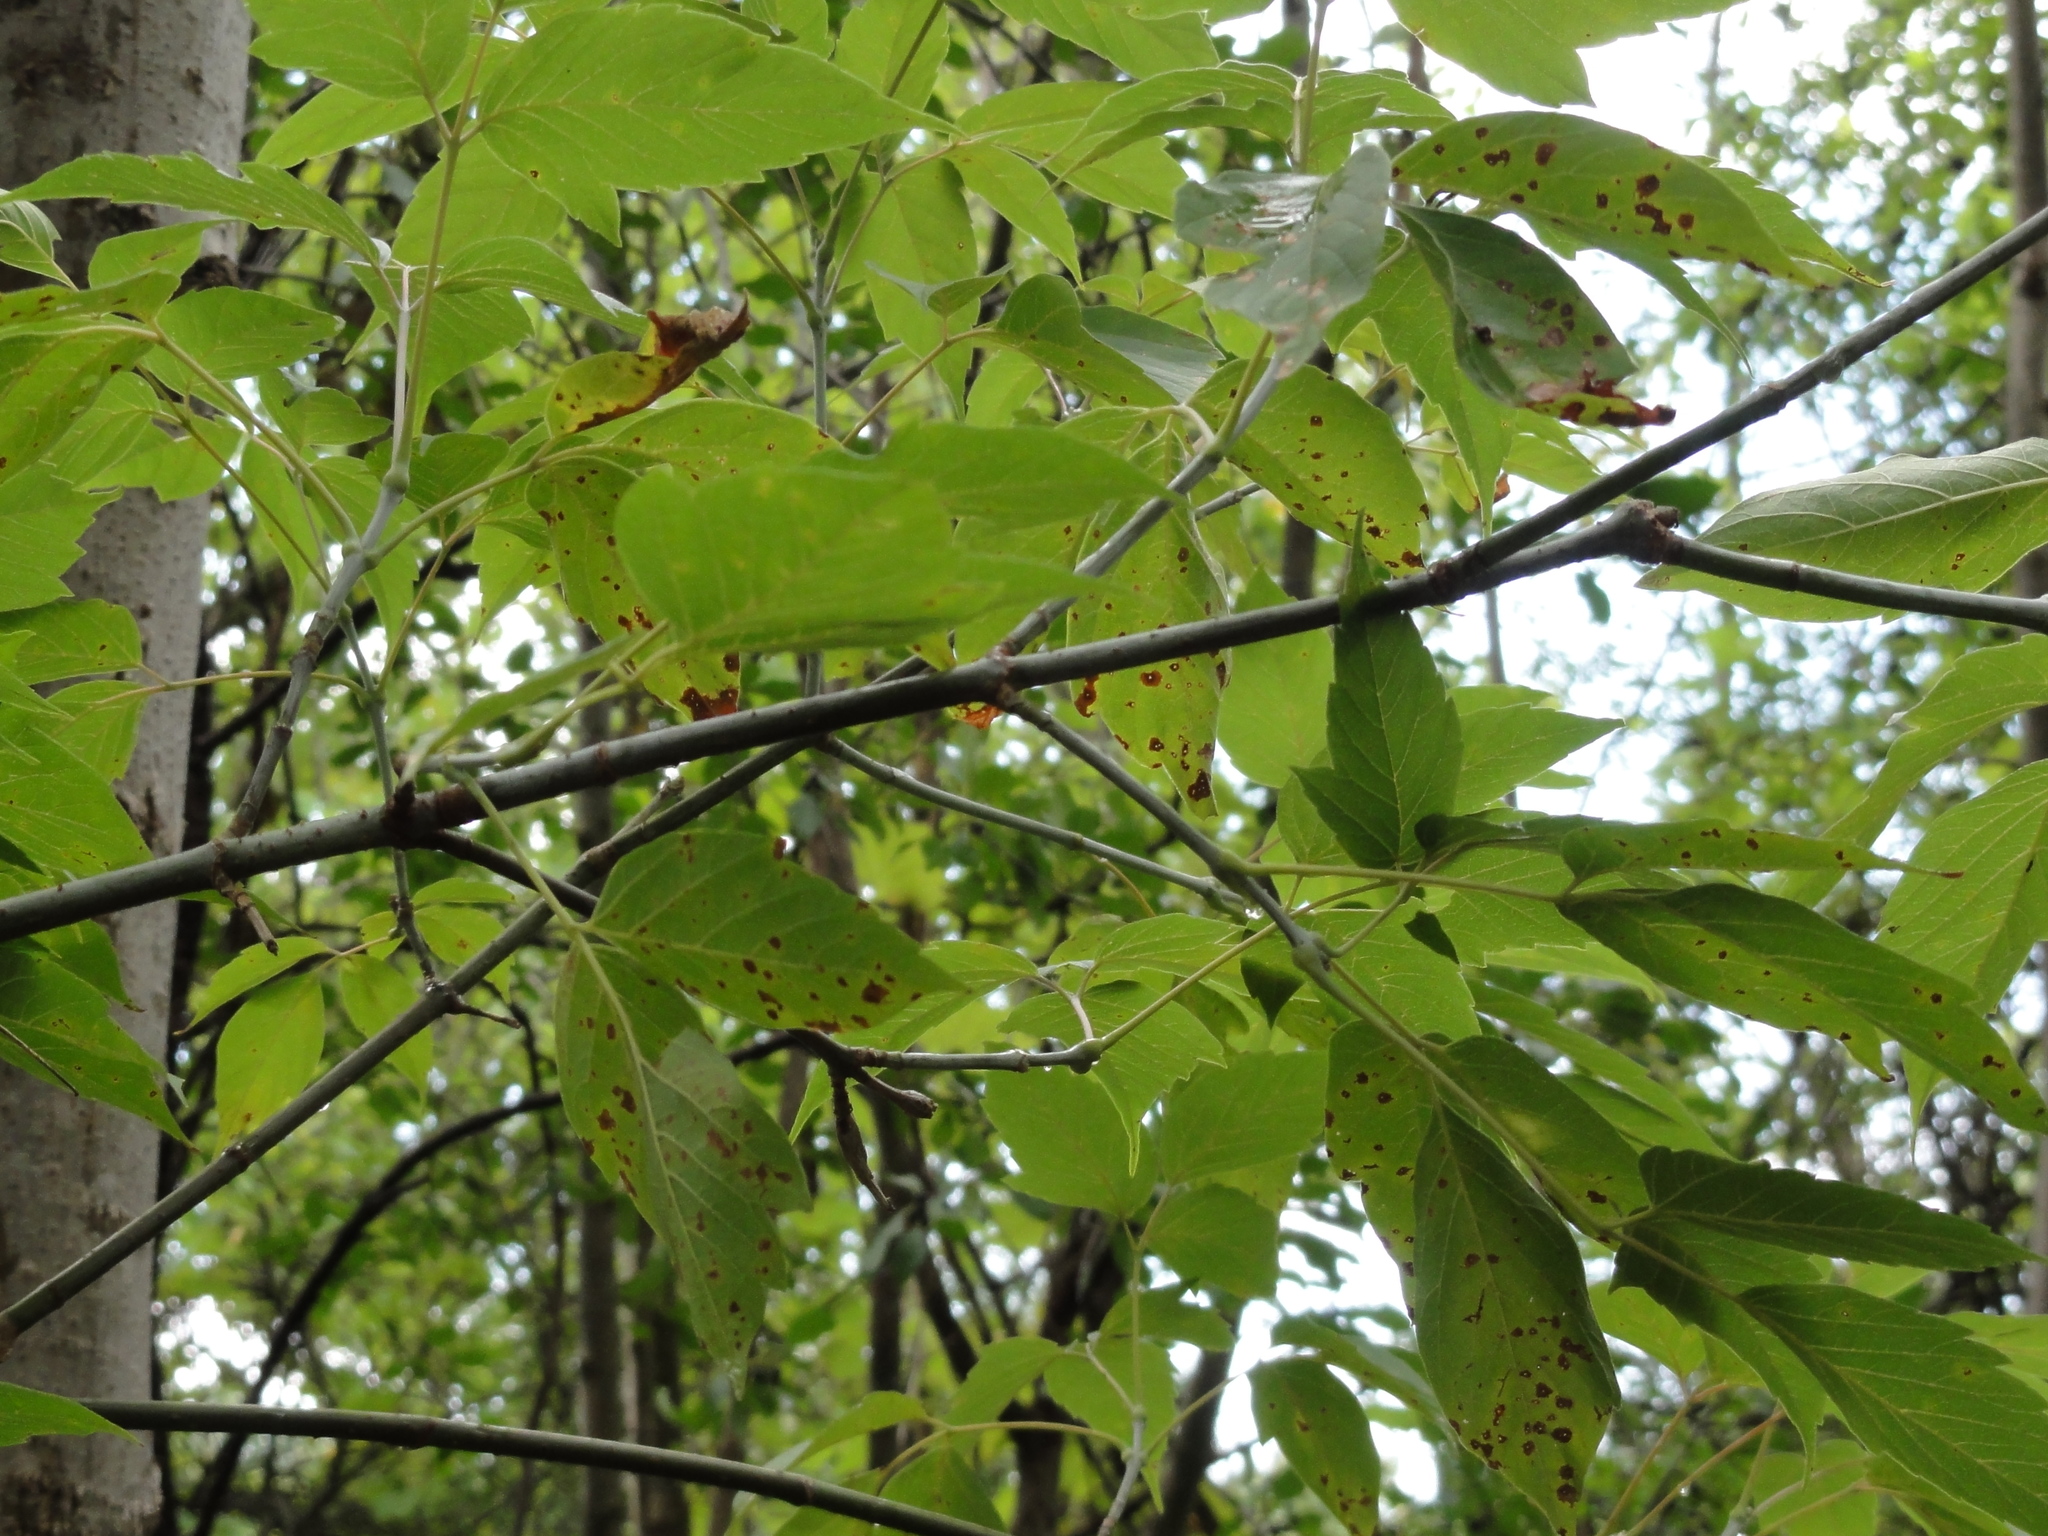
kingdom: Plantae
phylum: Tracheophyta
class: Magnoliopsida
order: Sapindales
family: Sapindaceae
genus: Acer
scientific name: Acer negundo
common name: Ashleaf maple
